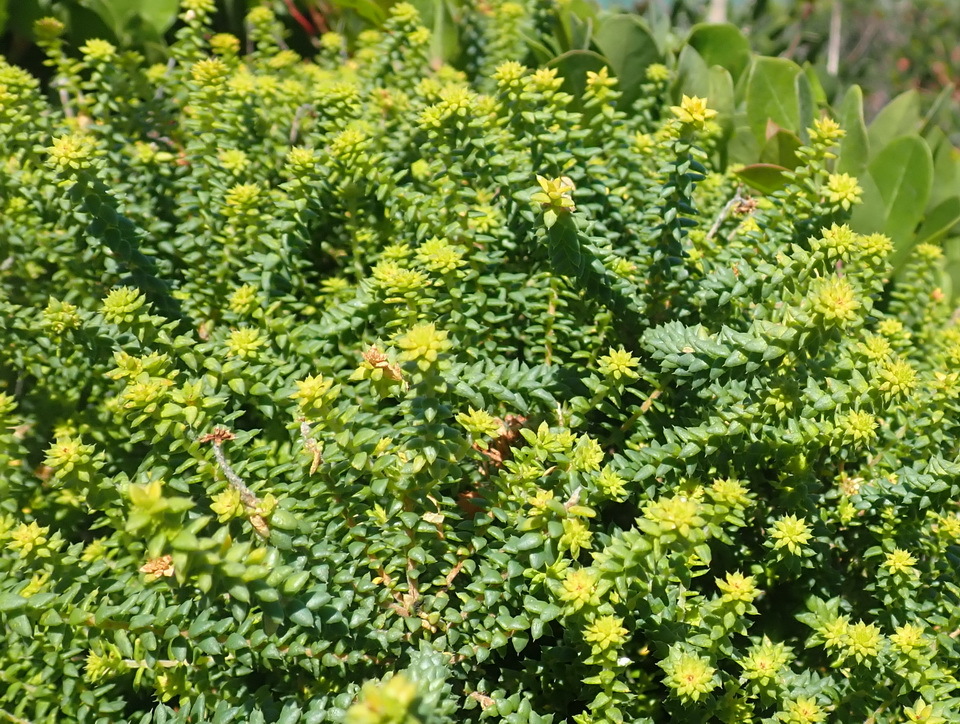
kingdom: Plantae
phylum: Tracheophyta
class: Magnoliopsida
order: Sapindales
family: Rutaceae
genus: Agathosma
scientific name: Agathosma apiculata
